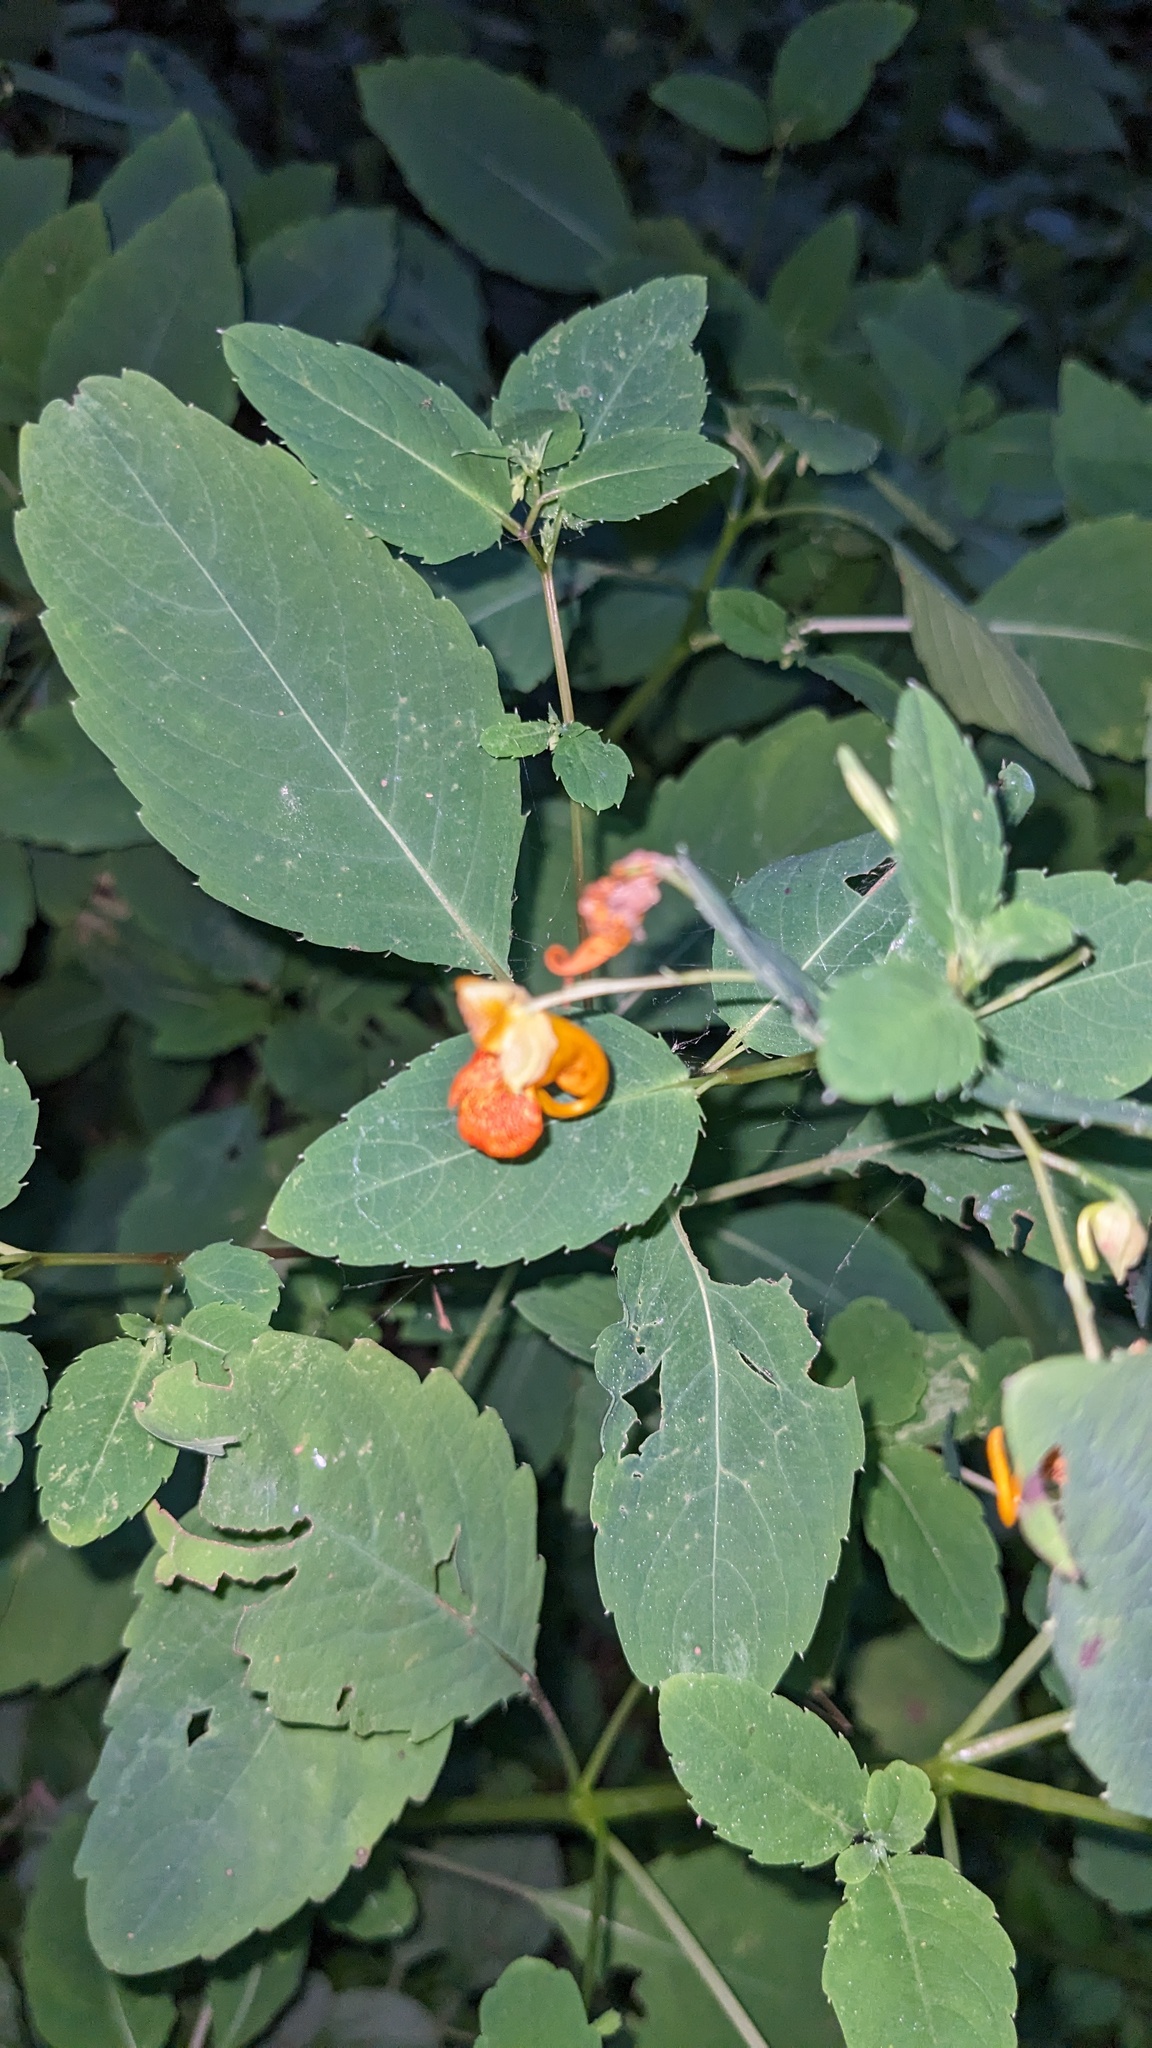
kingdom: Plantae
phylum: Tracheophyta
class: Magnoliopsida
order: Ericales
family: Balsaminaceae
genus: Impatiens
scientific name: Impatiens capensis
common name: Orange balsam
